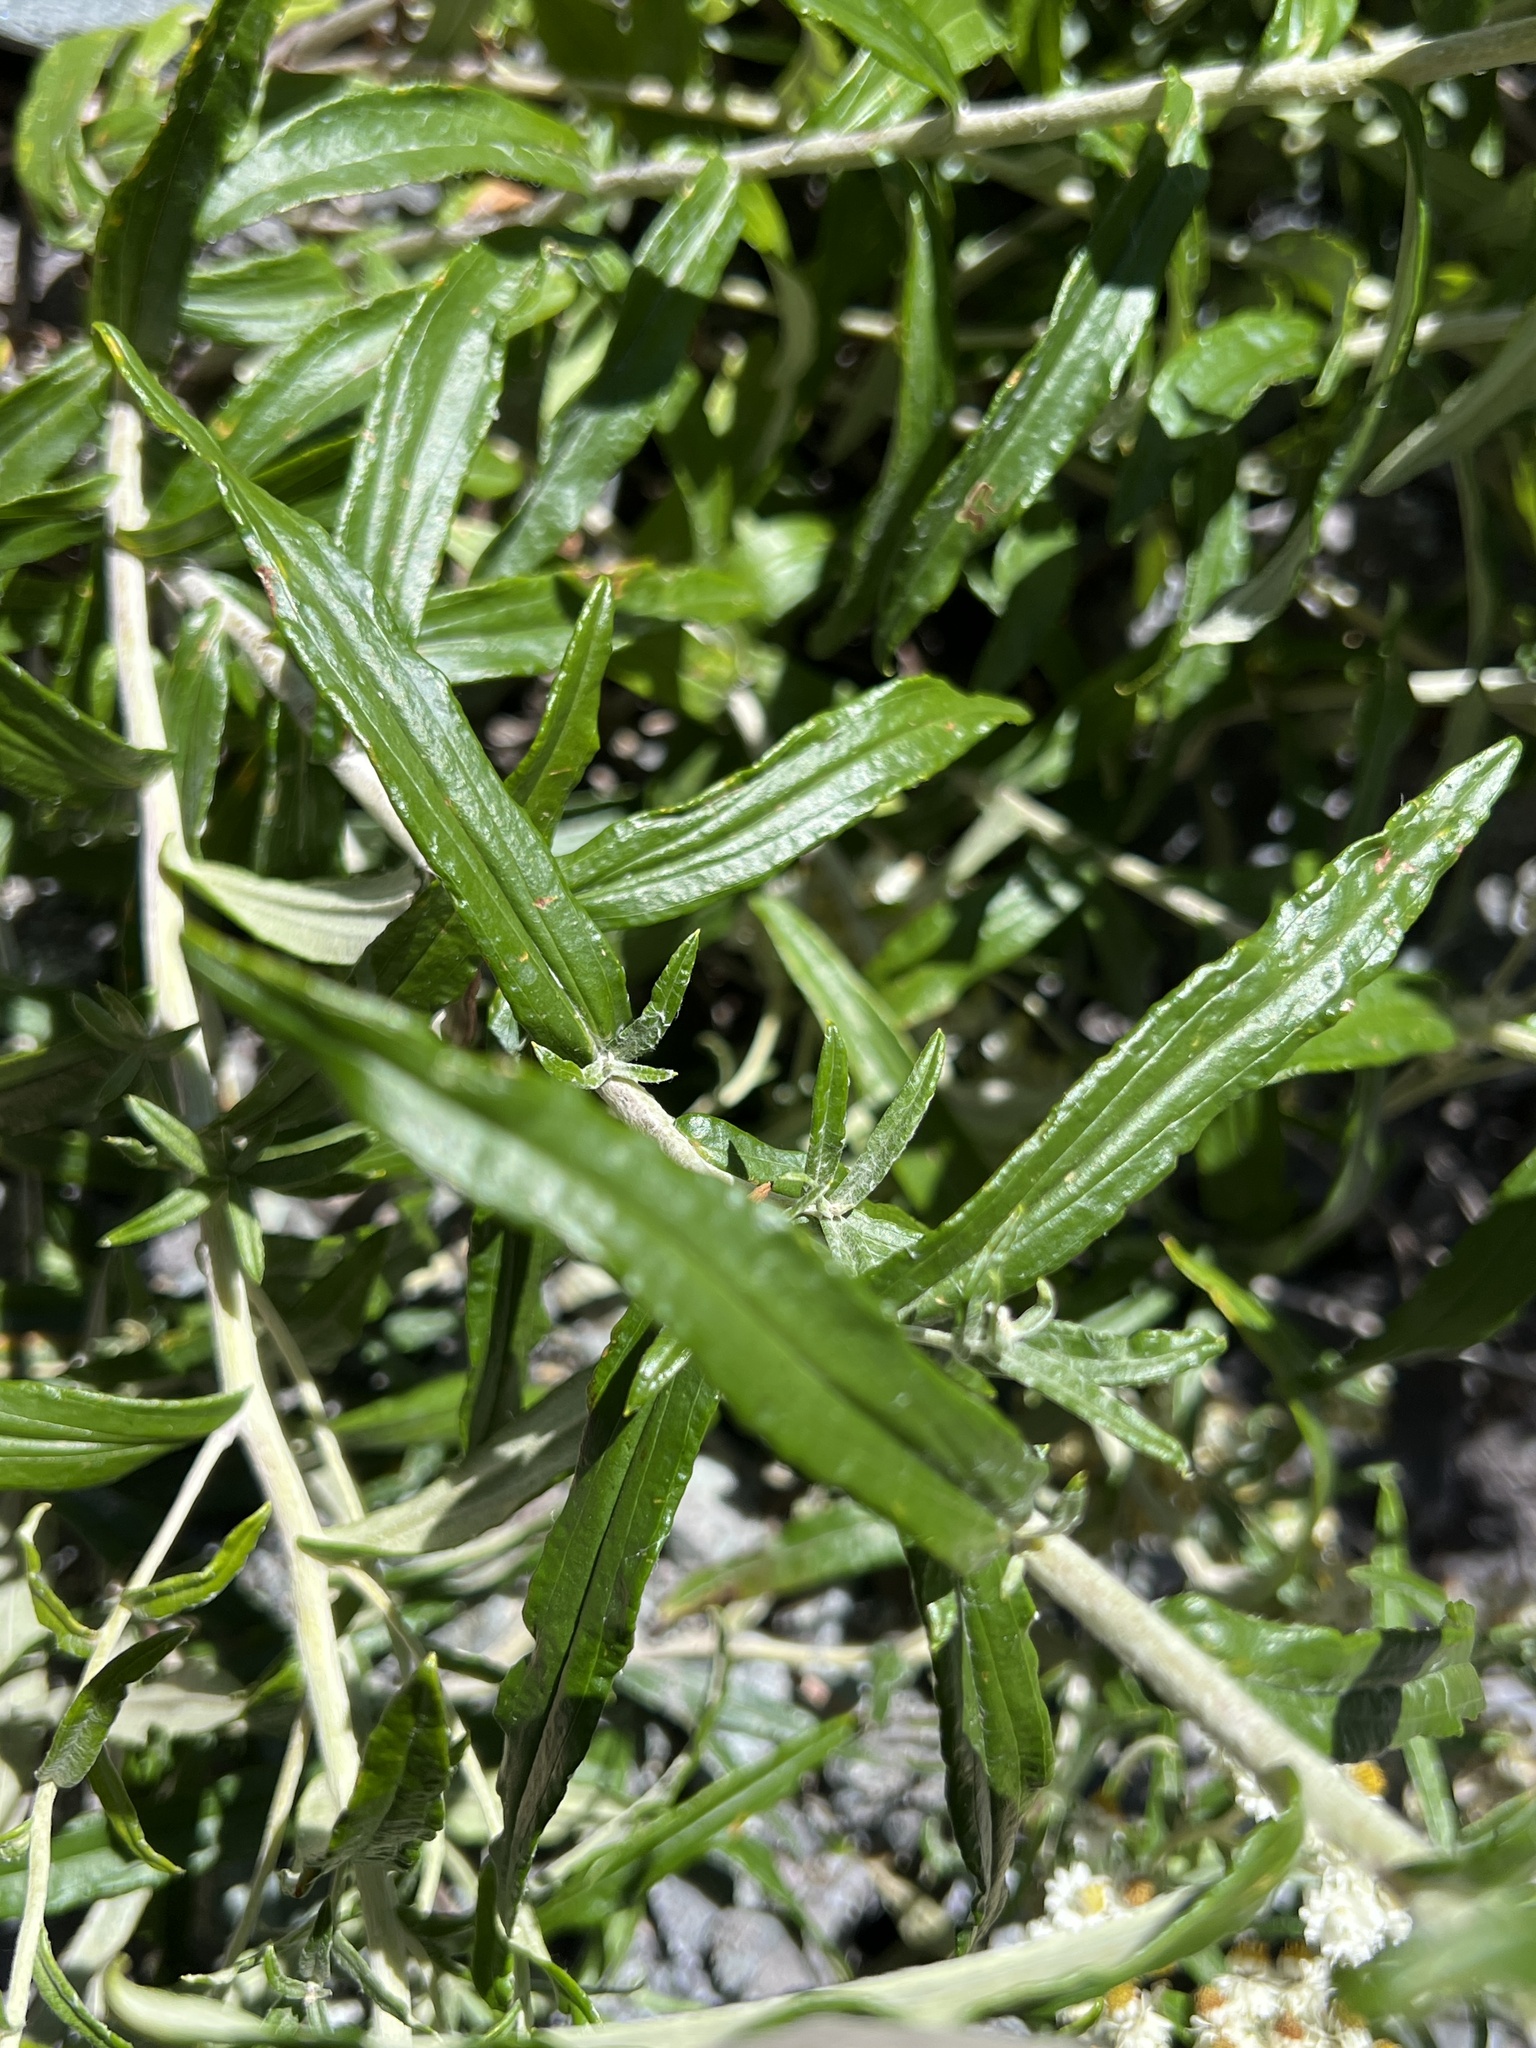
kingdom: Plantae
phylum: Tracheophyta
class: Magnoliopsida
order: Asterales
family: Asteraceae
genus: Anaphalis
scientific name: Anaphalis margaritacea
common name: Pearly everlasting
